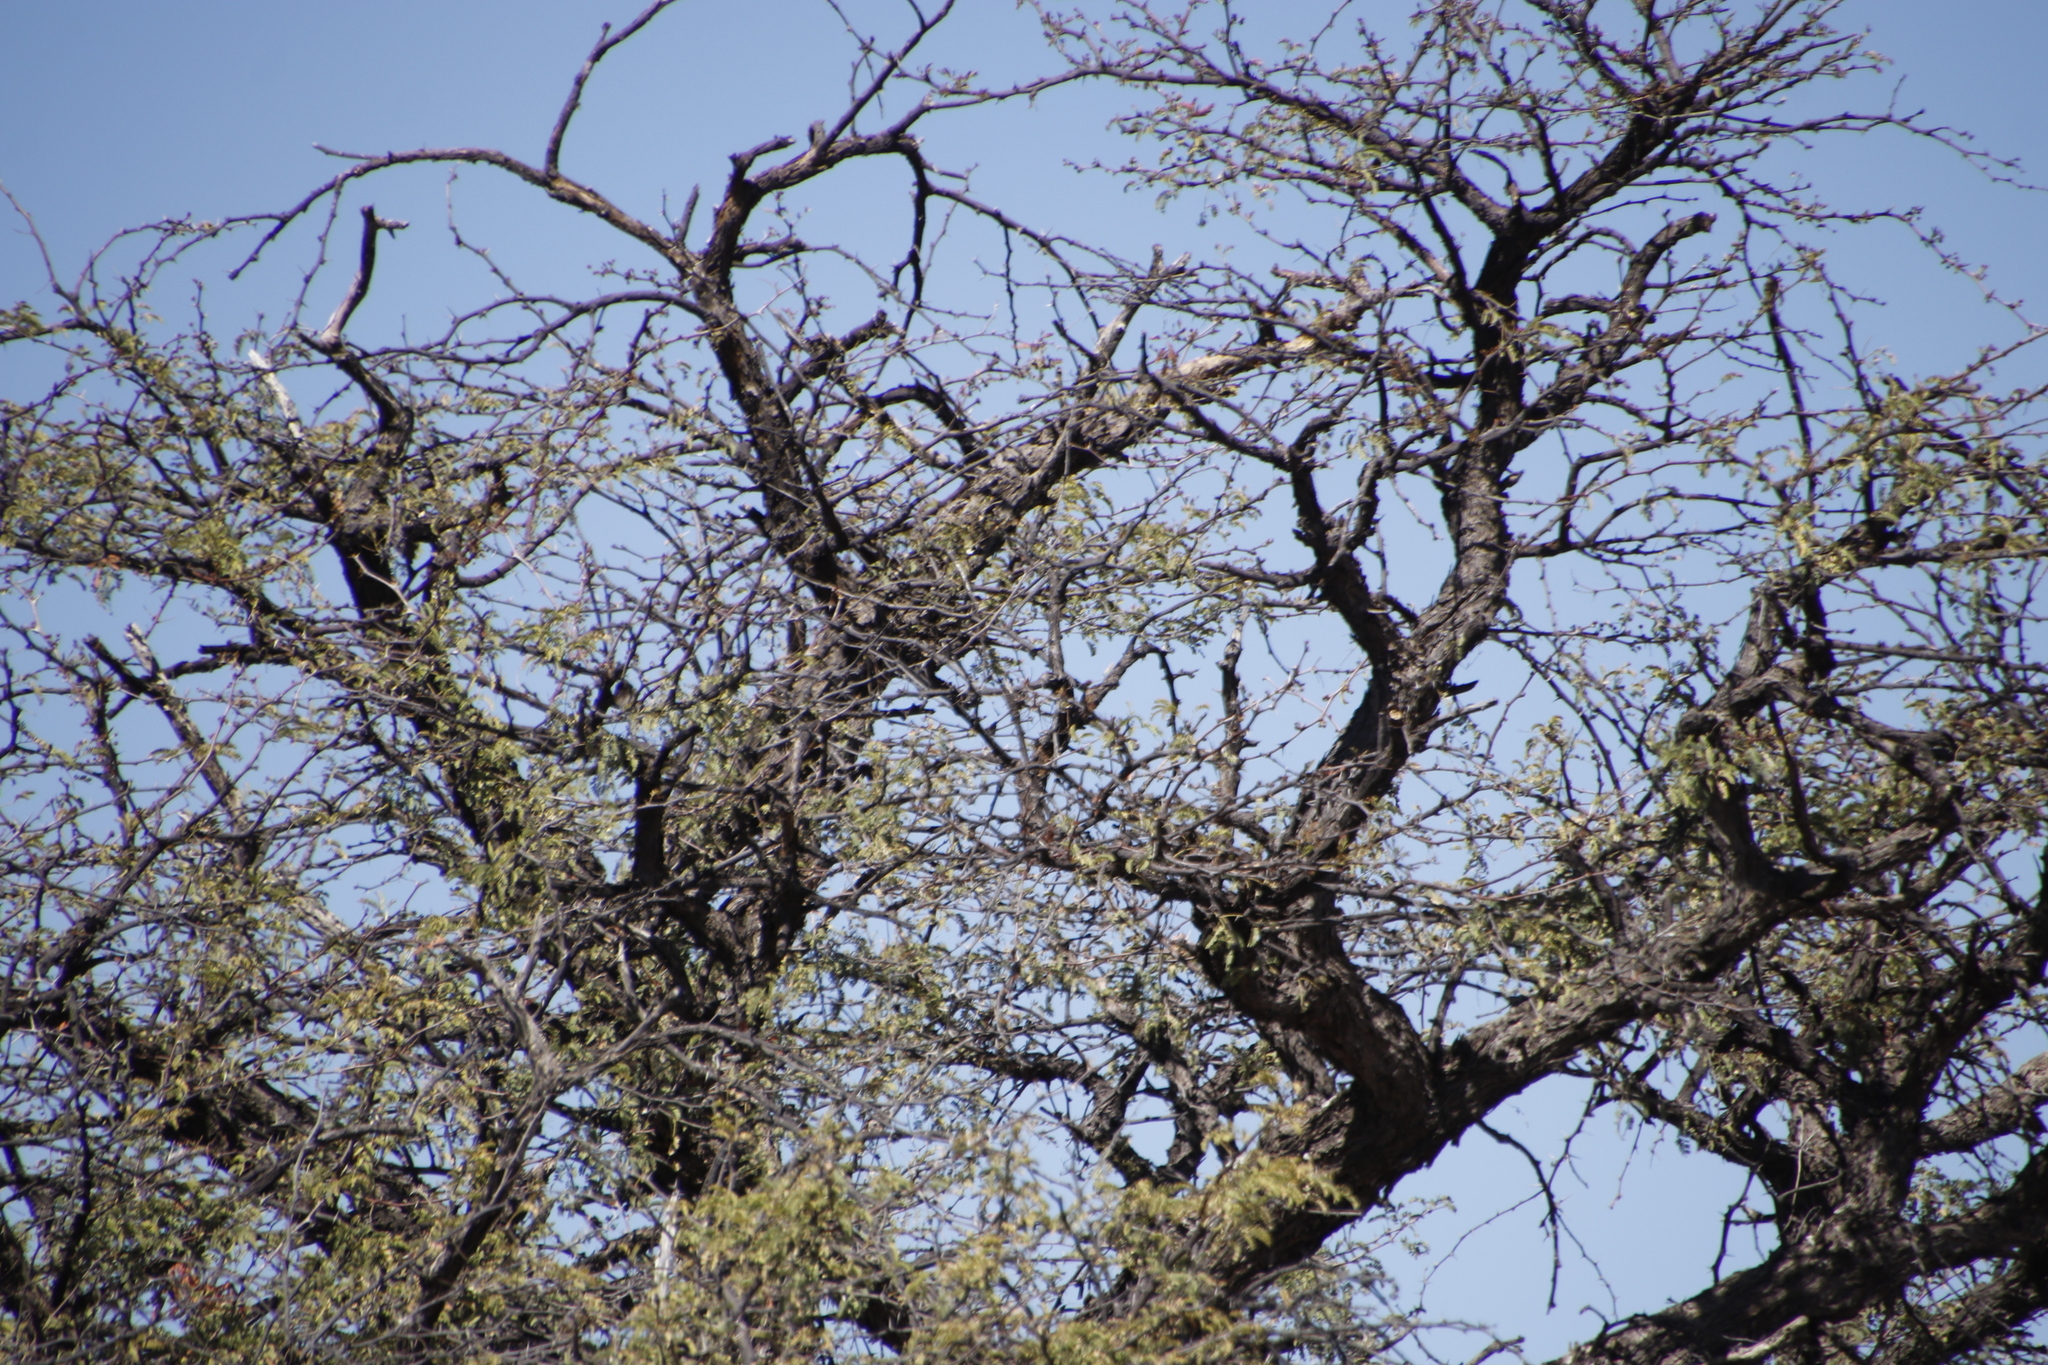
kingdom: Plantae
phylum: Tracheophyta
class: Magnoliopsida
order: Fabales
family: Fabaceae
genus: Vachellia
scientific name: Vachellia erioloba
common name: Camel thorn
